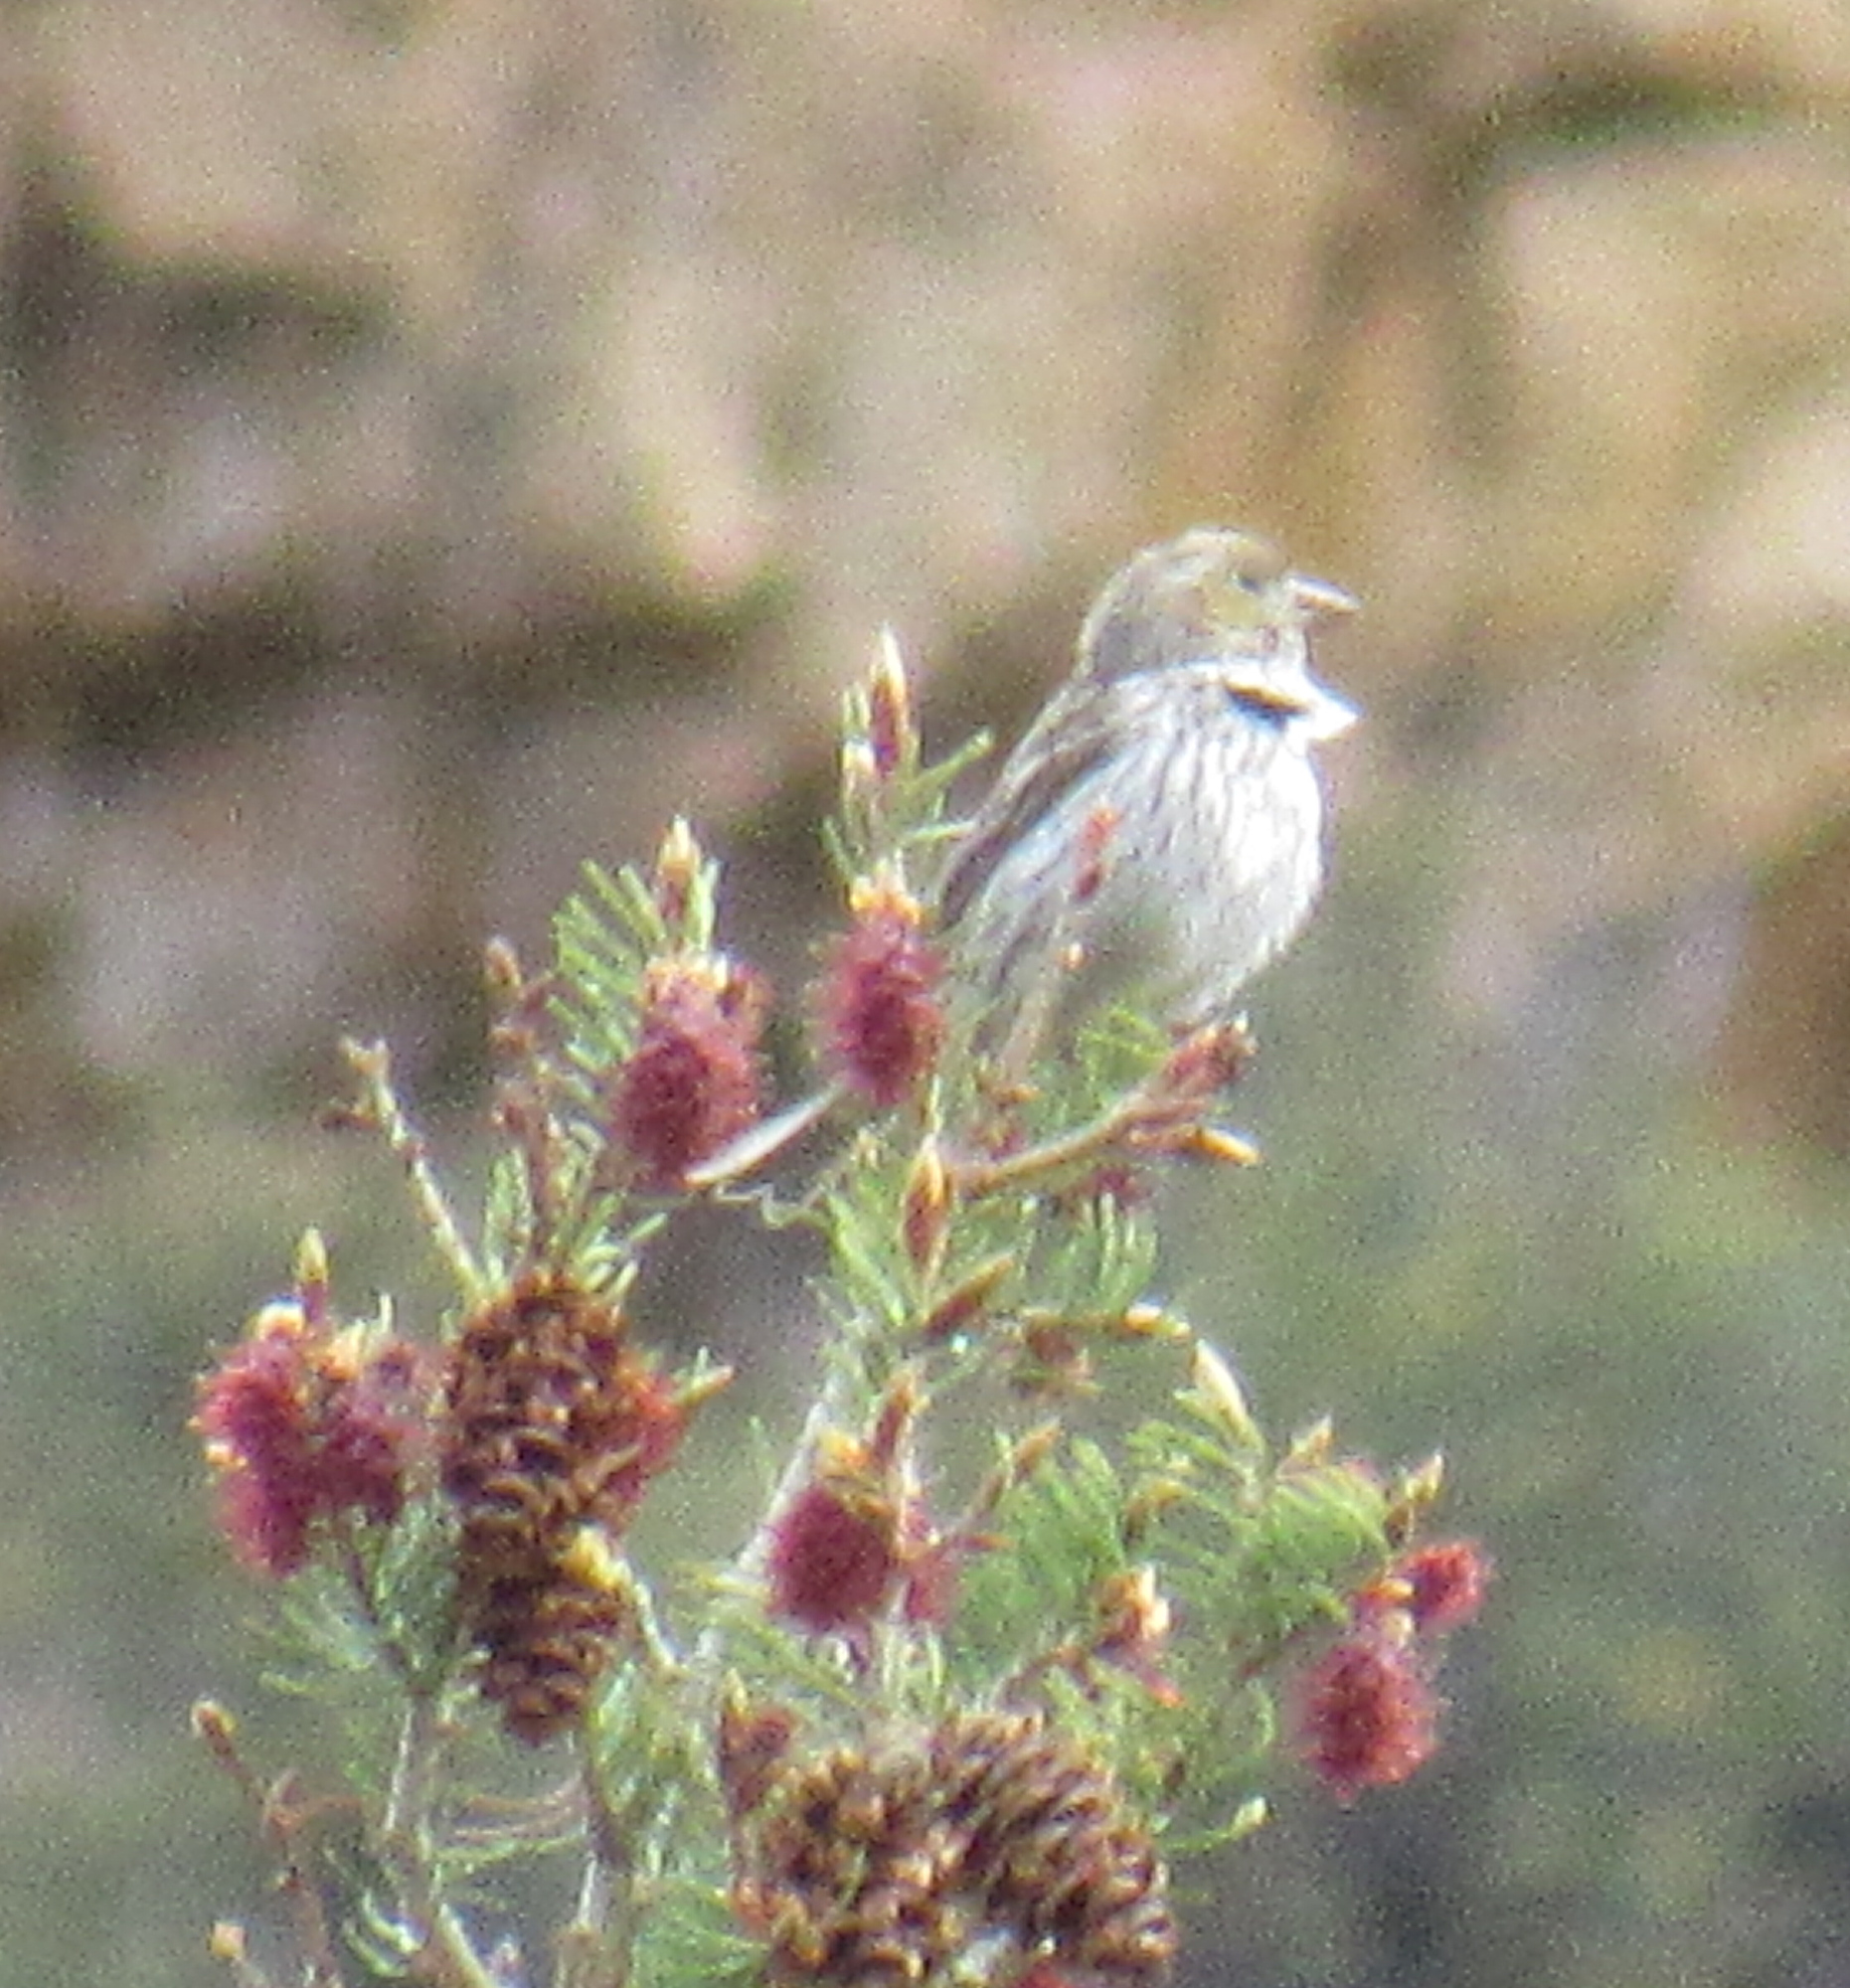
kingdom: Animalia
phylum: Chordata
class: Aves
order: Passeriformes
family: Fringillidae
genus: Haemorhous
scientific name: Haemorhous cassinii
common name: Cassin's finch
